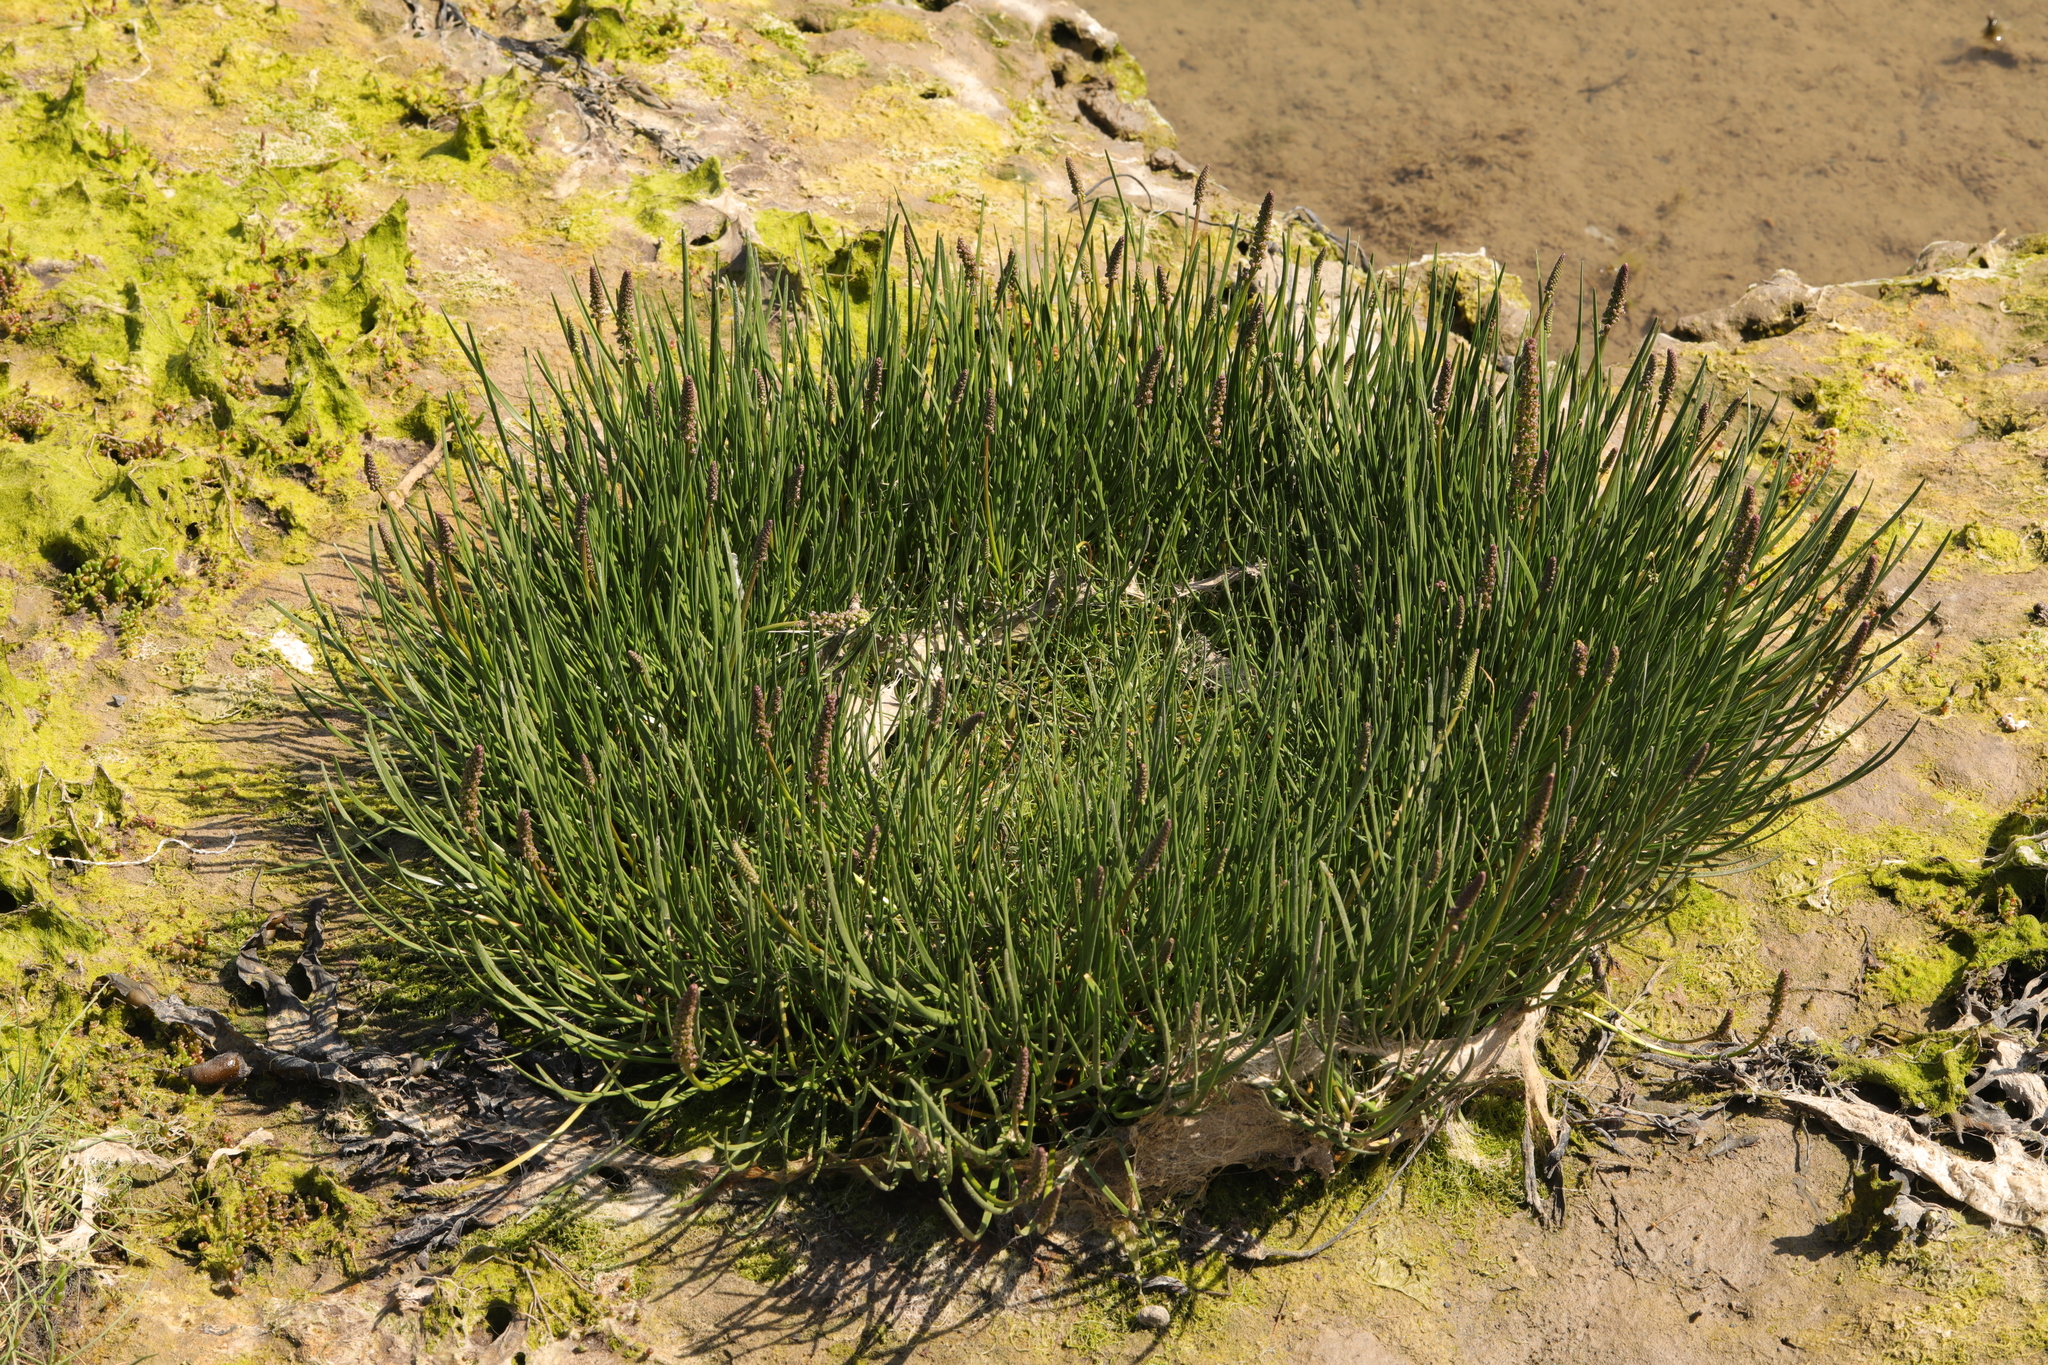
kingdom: Plantae
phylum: Tracheophyta
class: Magnoliopsida
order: Lamiales
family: Plantaginaceae
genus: Plantago
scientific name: Plantago maritima
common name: Sea plantain
